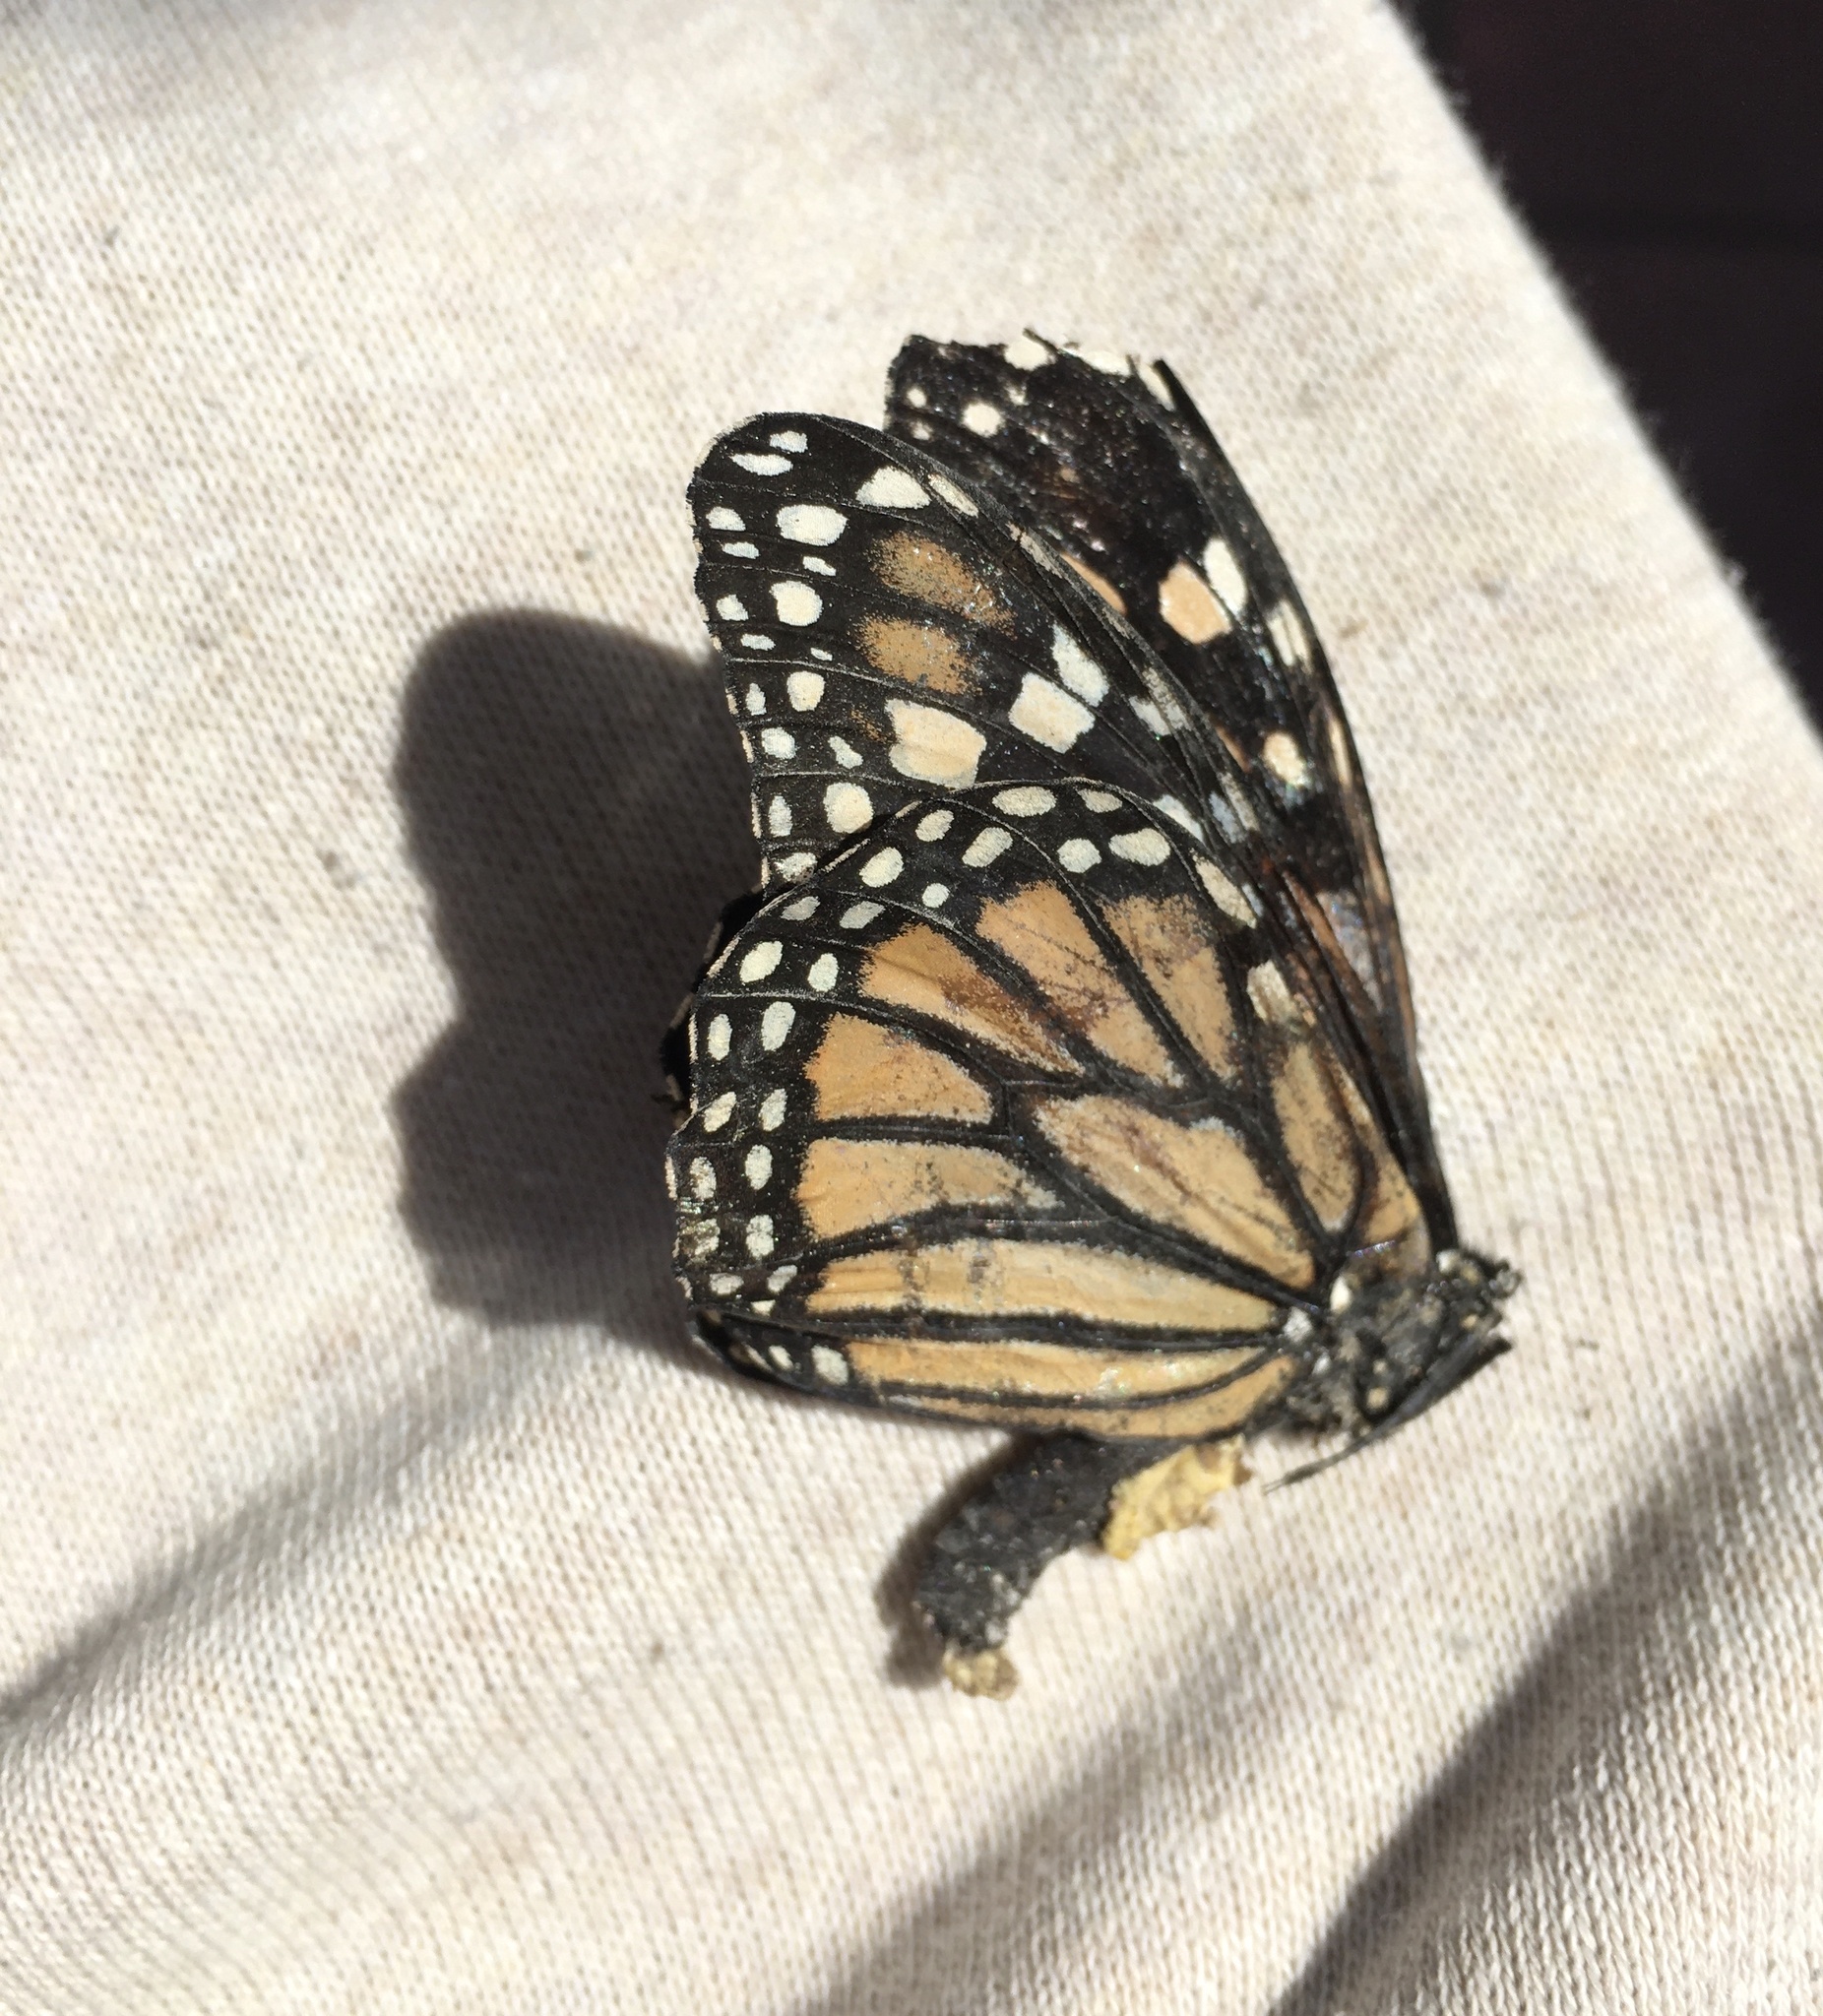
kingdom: Animalia
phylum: Arthropoda
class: Insecta
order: Lepidoptera
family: Nymphalidae
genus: Danaus
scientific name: Danaus plexippus
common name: Monarch
